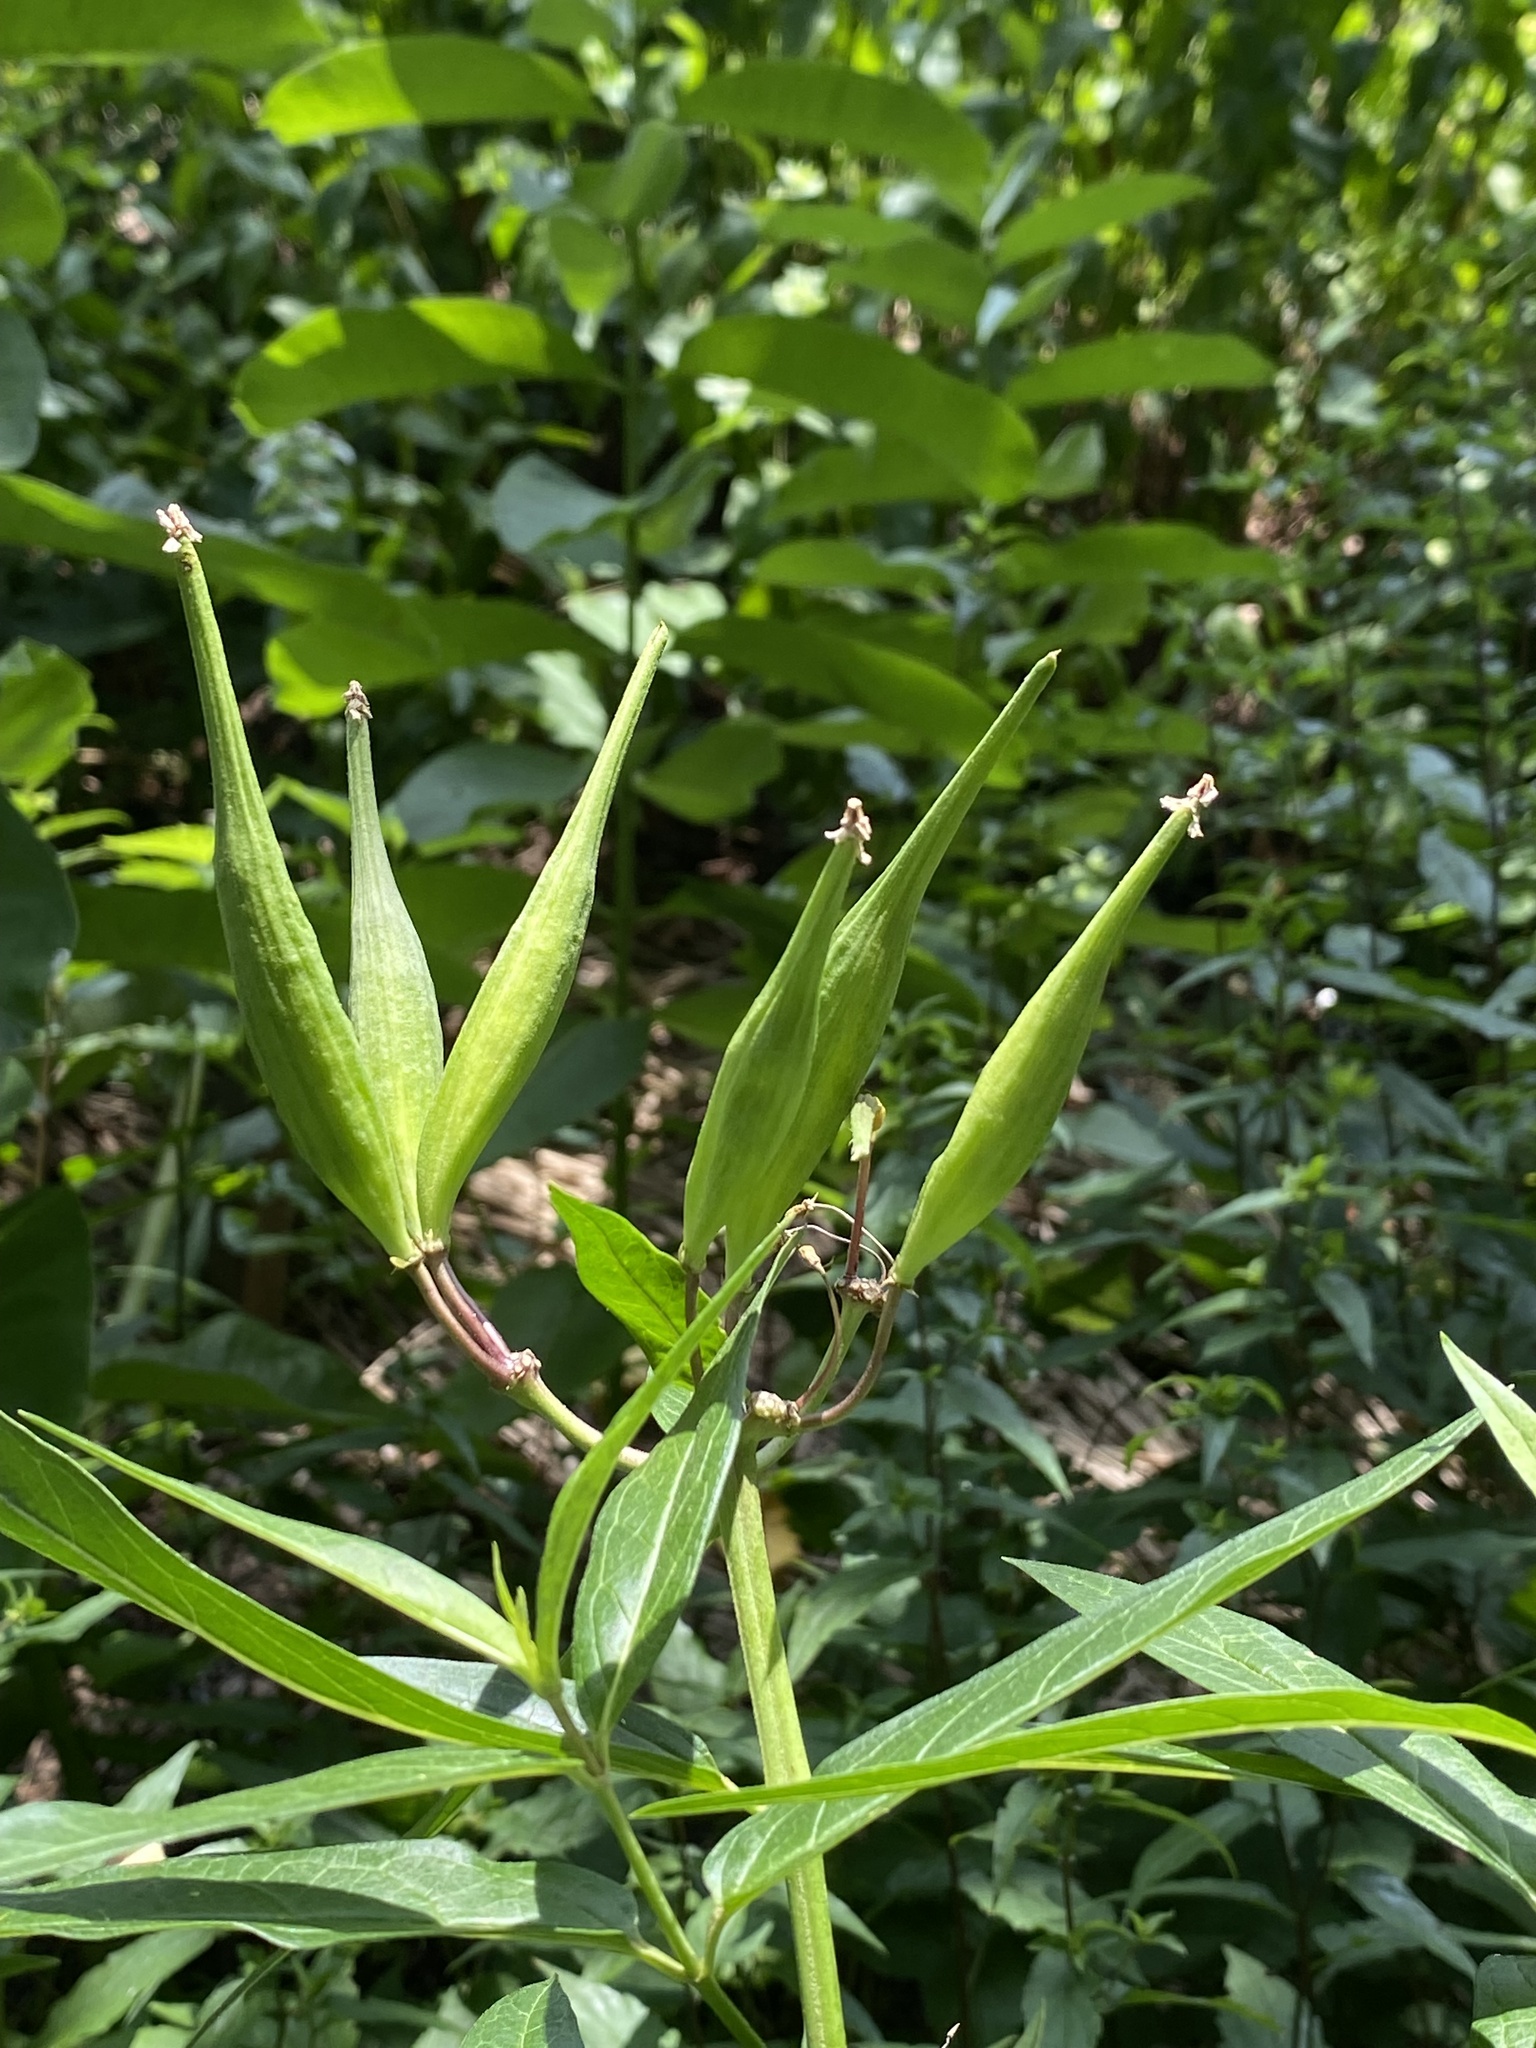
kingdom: Plantae
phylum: Tracheophyta
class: Magnoliopsida
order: Gentianales
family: Apocynaceae
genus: Asclepias
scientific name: Asclepias incarnata
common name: Swamp milkweed
